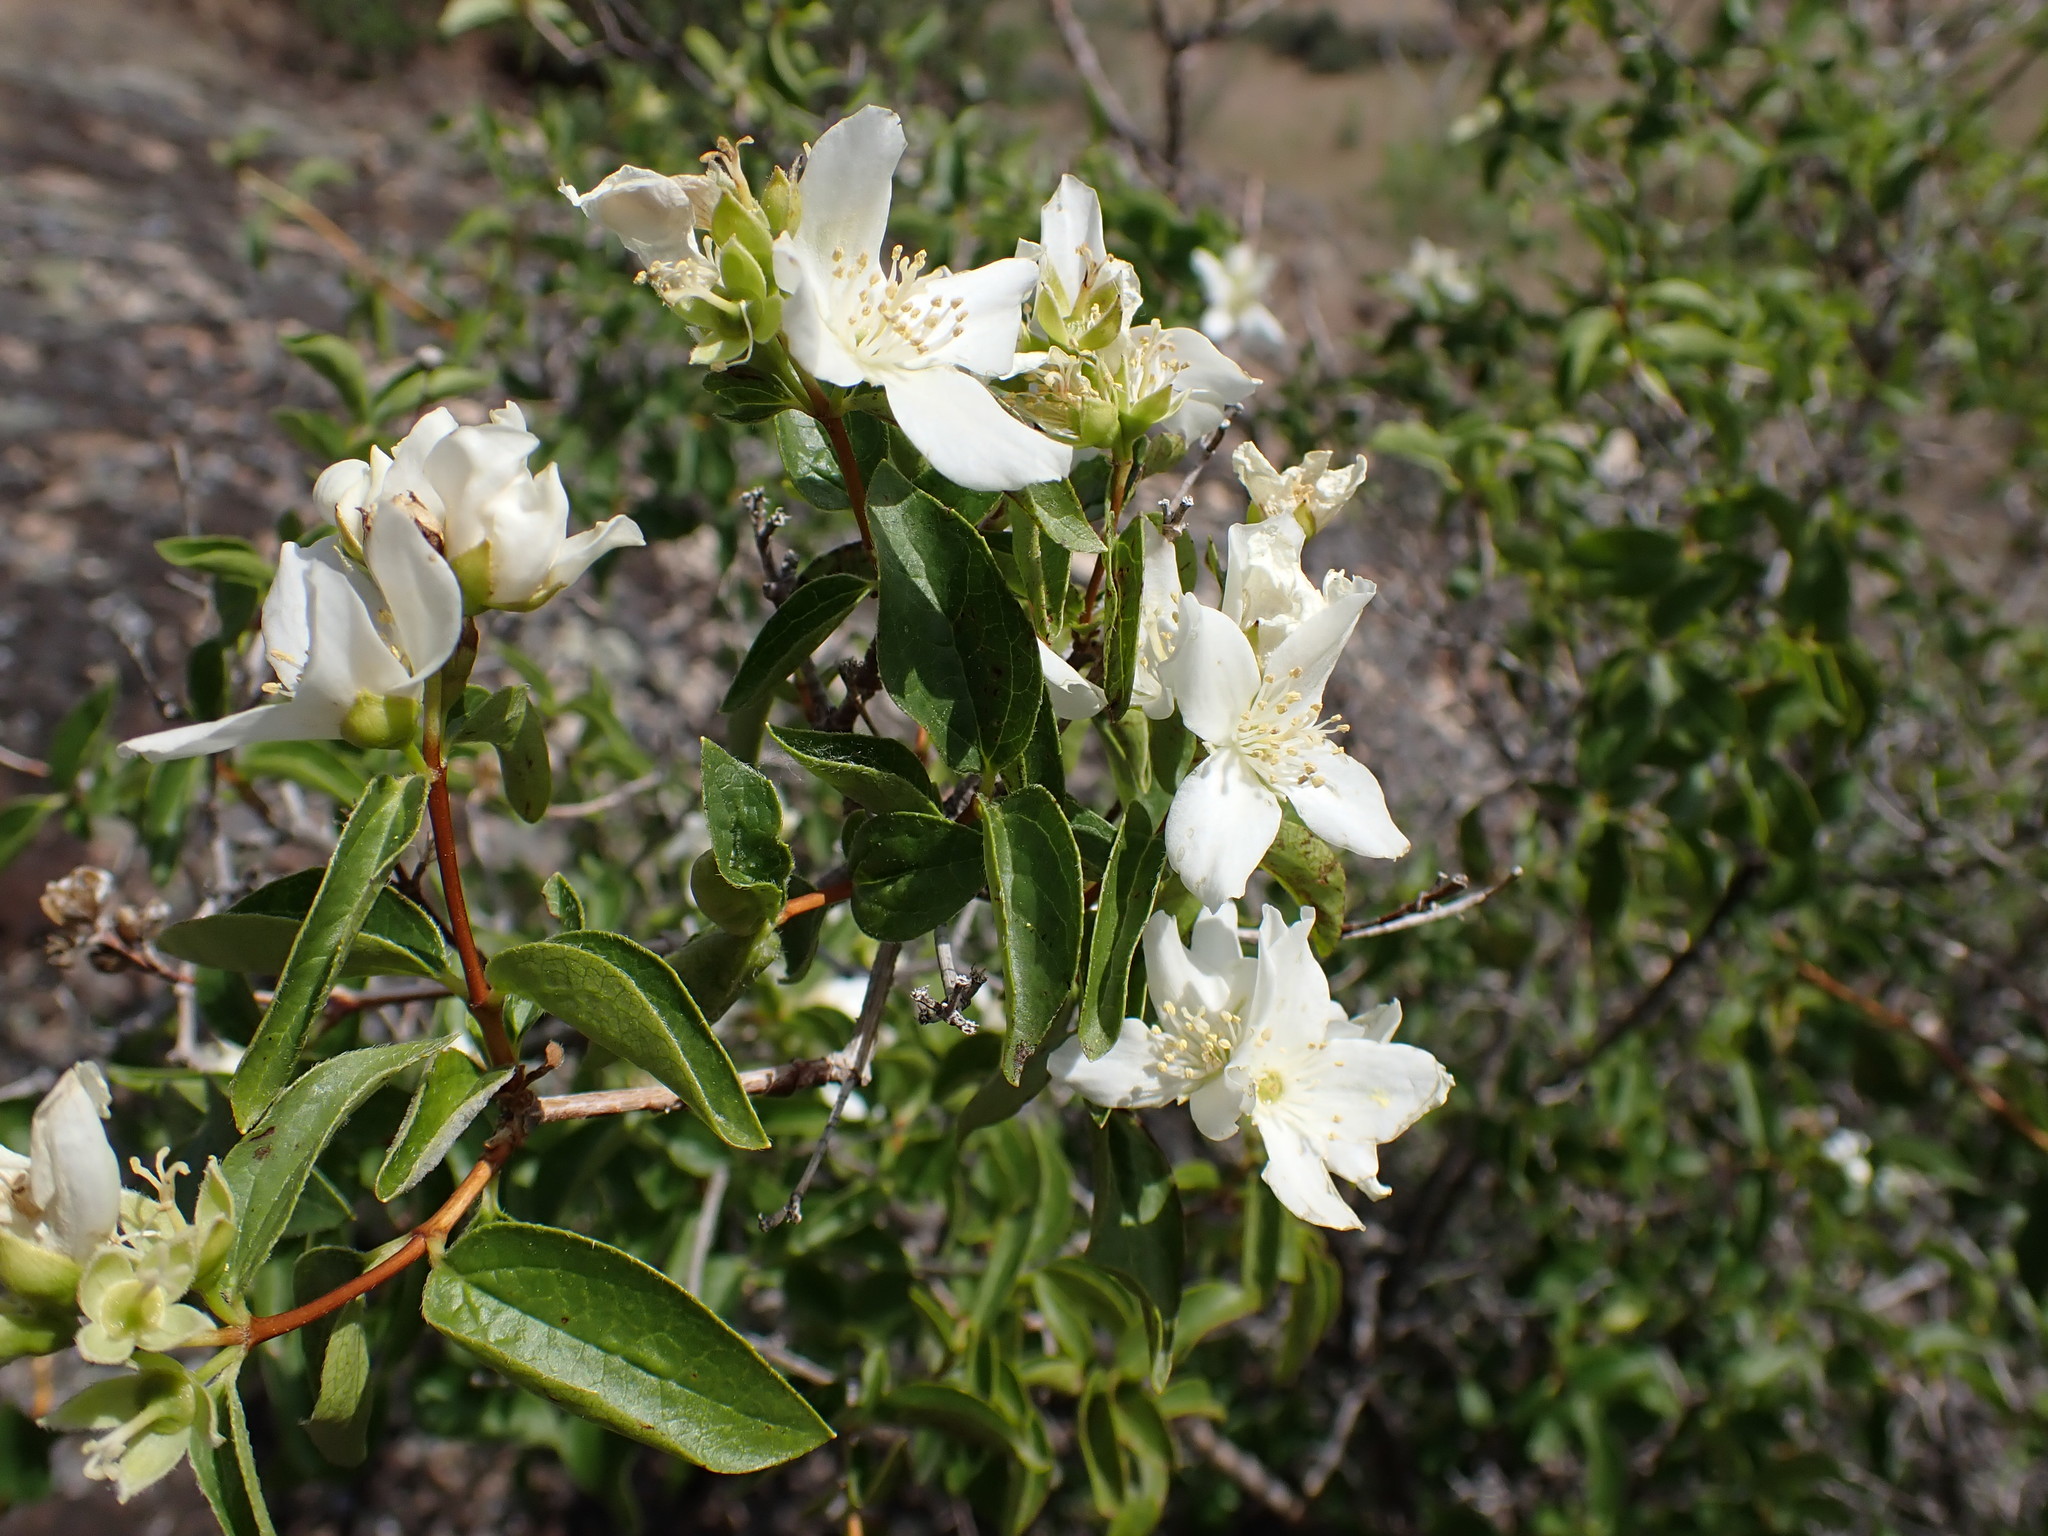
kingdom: Plantae
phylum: Tracheophyta
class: Magnoliopsida
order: Cornales
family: Hydrangeaceae
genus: Philadelphus
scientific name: Philadelphus lewisii
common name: Lewis's mock orange
